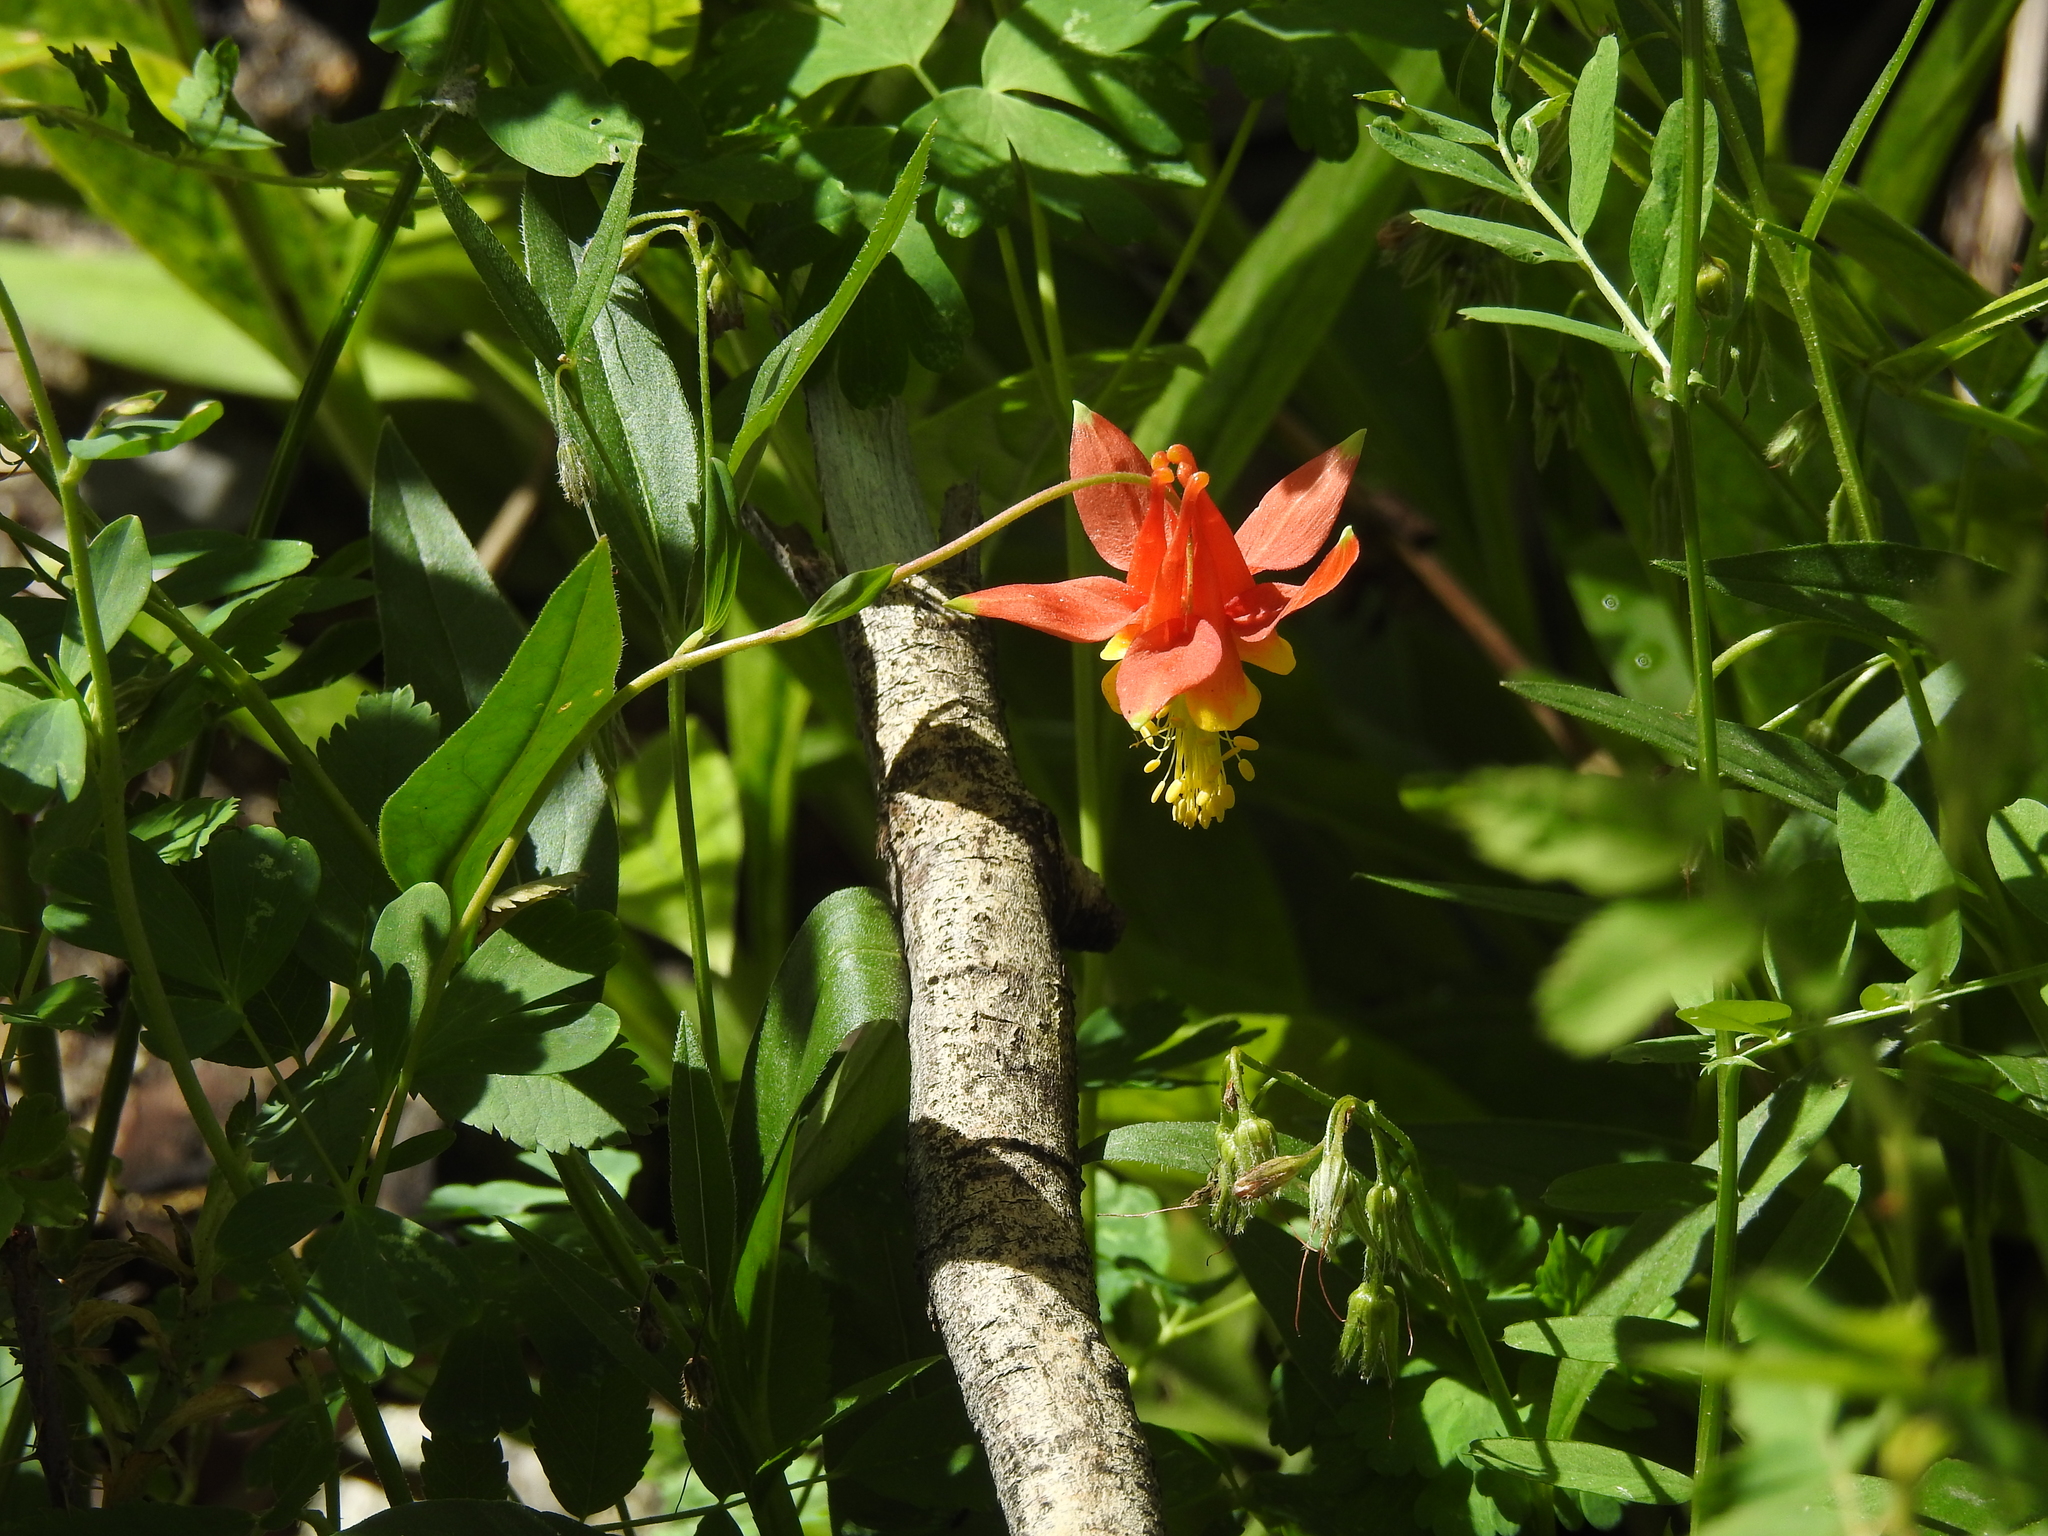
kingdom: Plantae
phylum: Tracheophyta
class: Magnoliopsida
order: Ranunculales
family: Ranunculaceae
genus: Aquilegia
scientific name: Aquilegia formosa
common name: Sitka columbine
